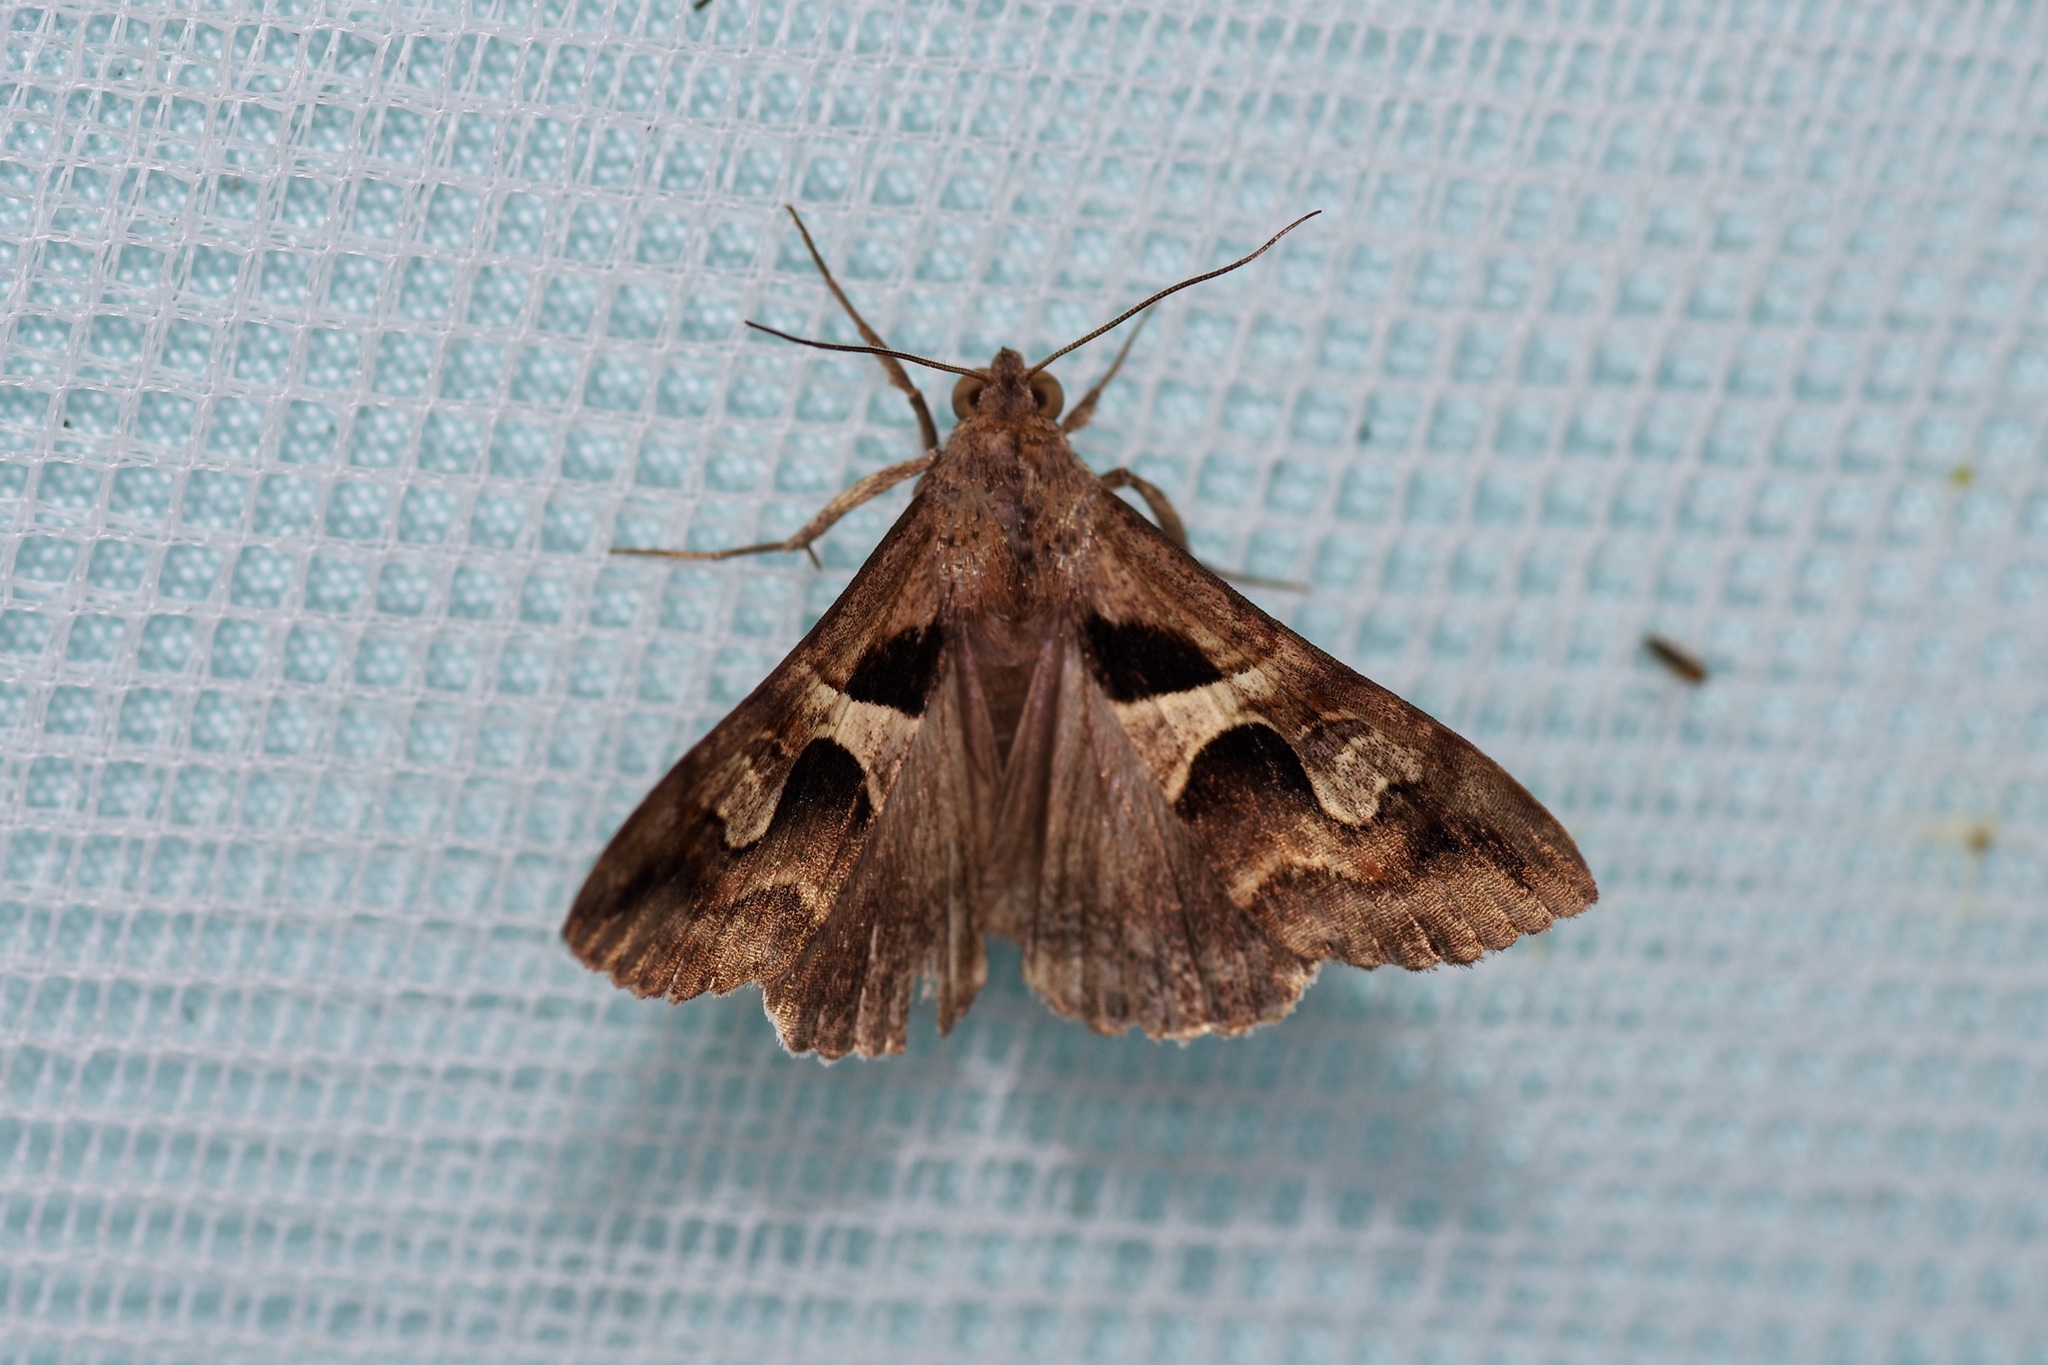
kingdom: Animalia
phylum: Arthropoda
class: Insecta
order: Lepidoptera
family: Erebidae
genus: Melipotis
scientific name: Melipotis cellaris
